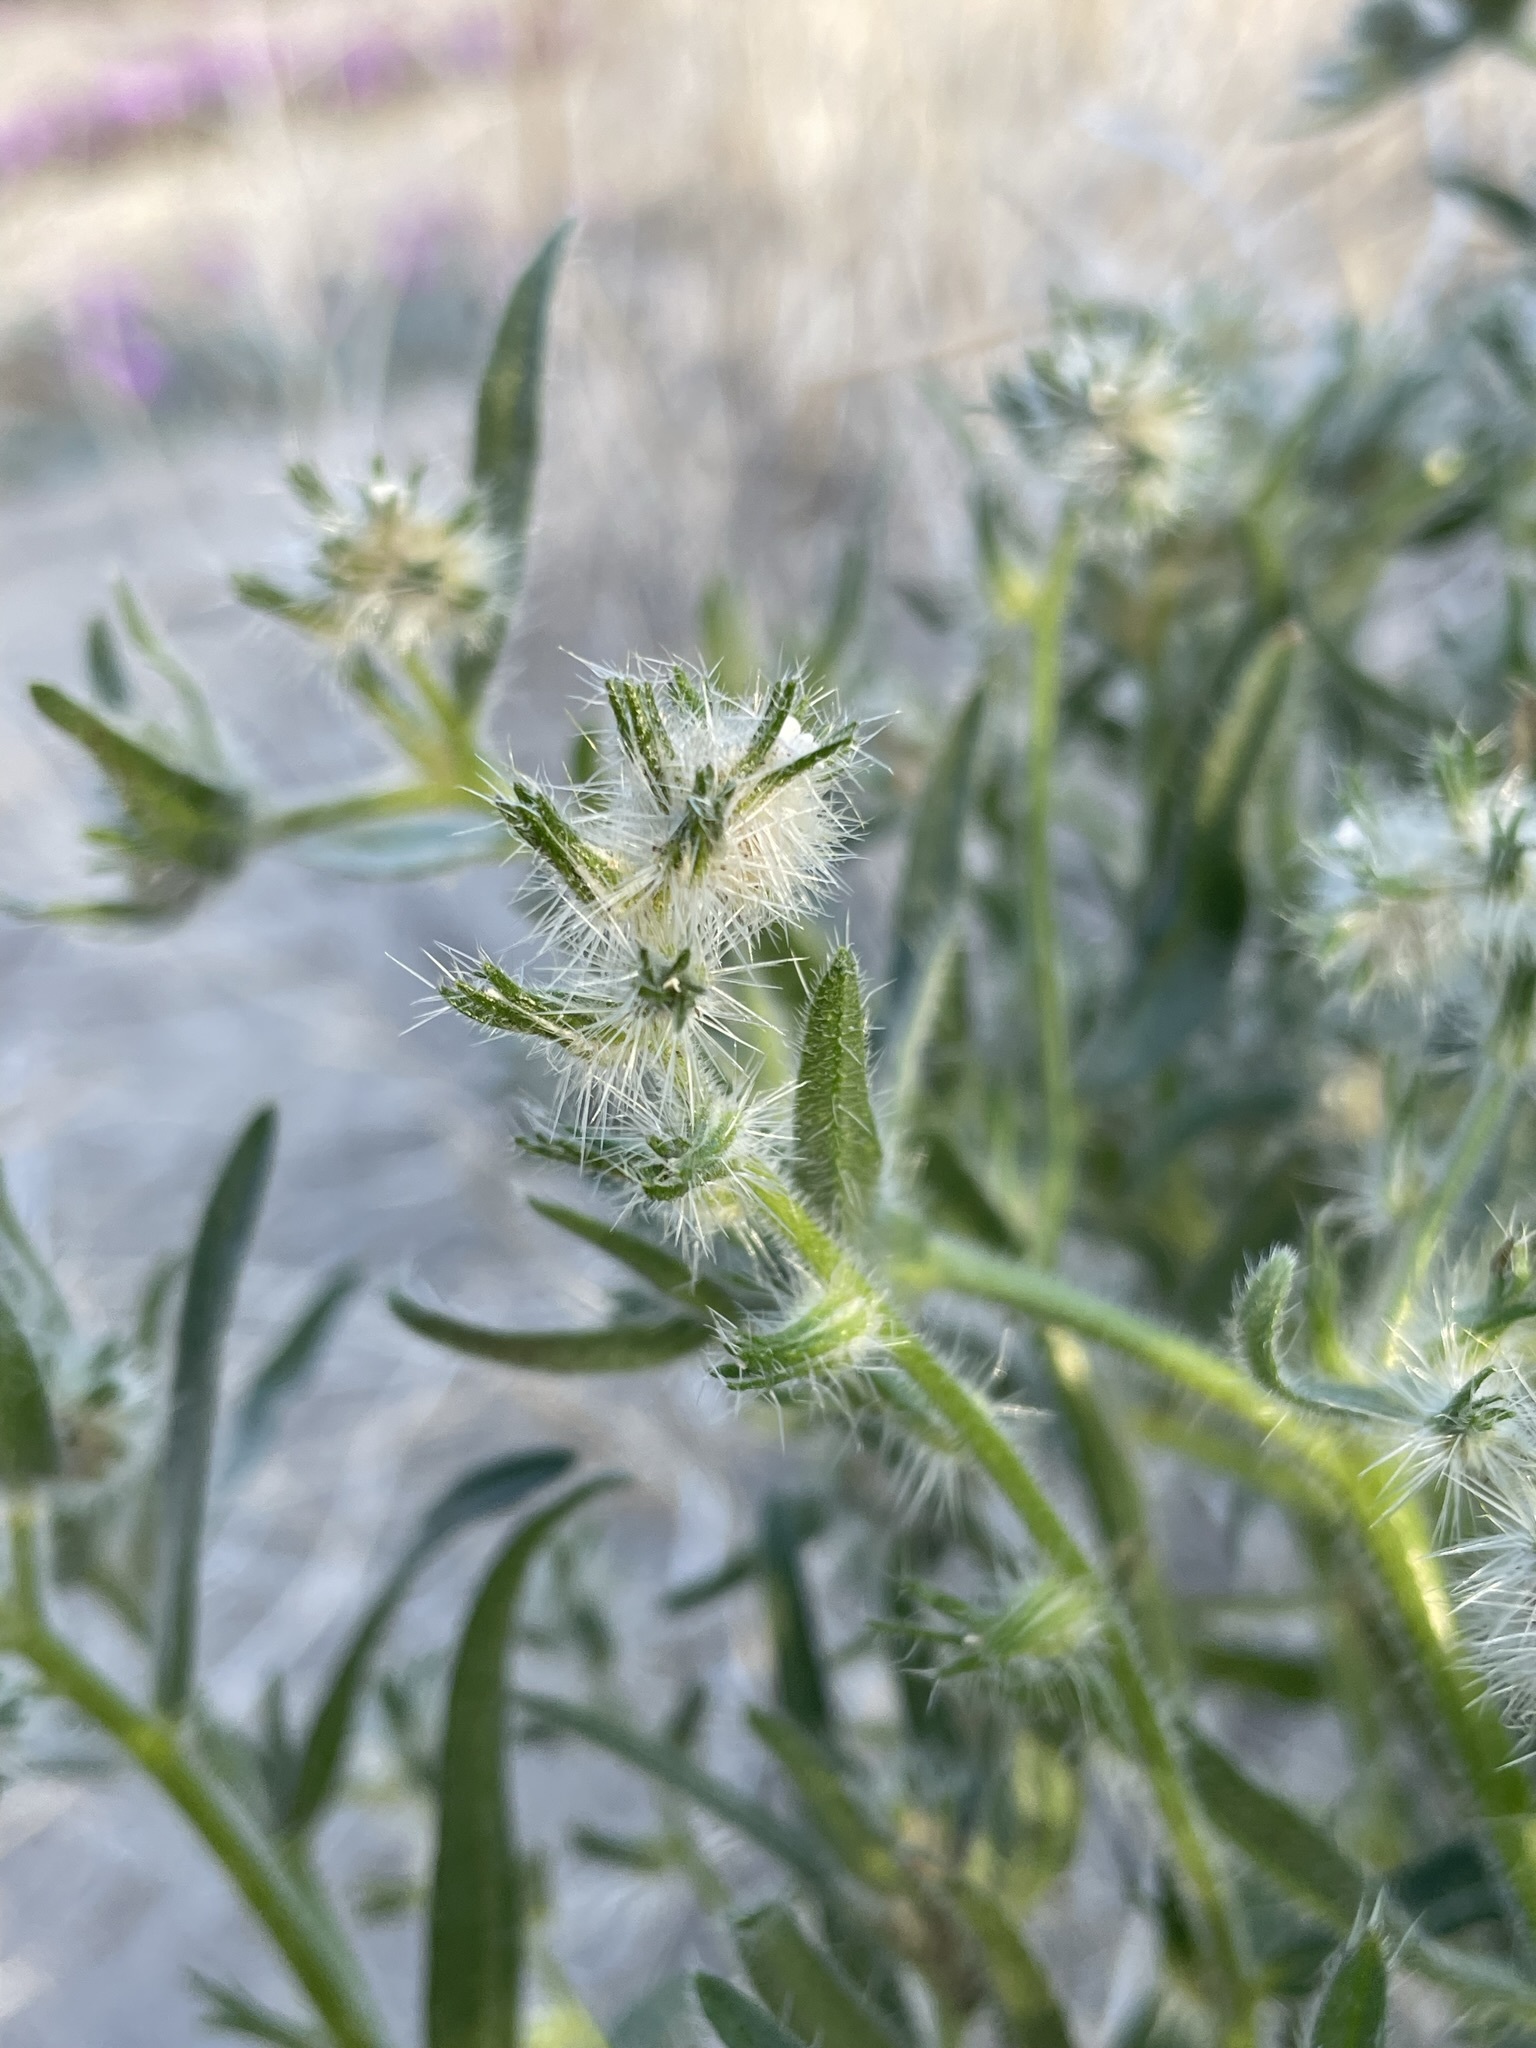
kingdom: Plantae
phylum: Tracheophyta
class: Magnoliopsida
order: Boraginales
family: Boraginaceae
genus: Cryptantha
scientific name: Cryptantha ganderi
